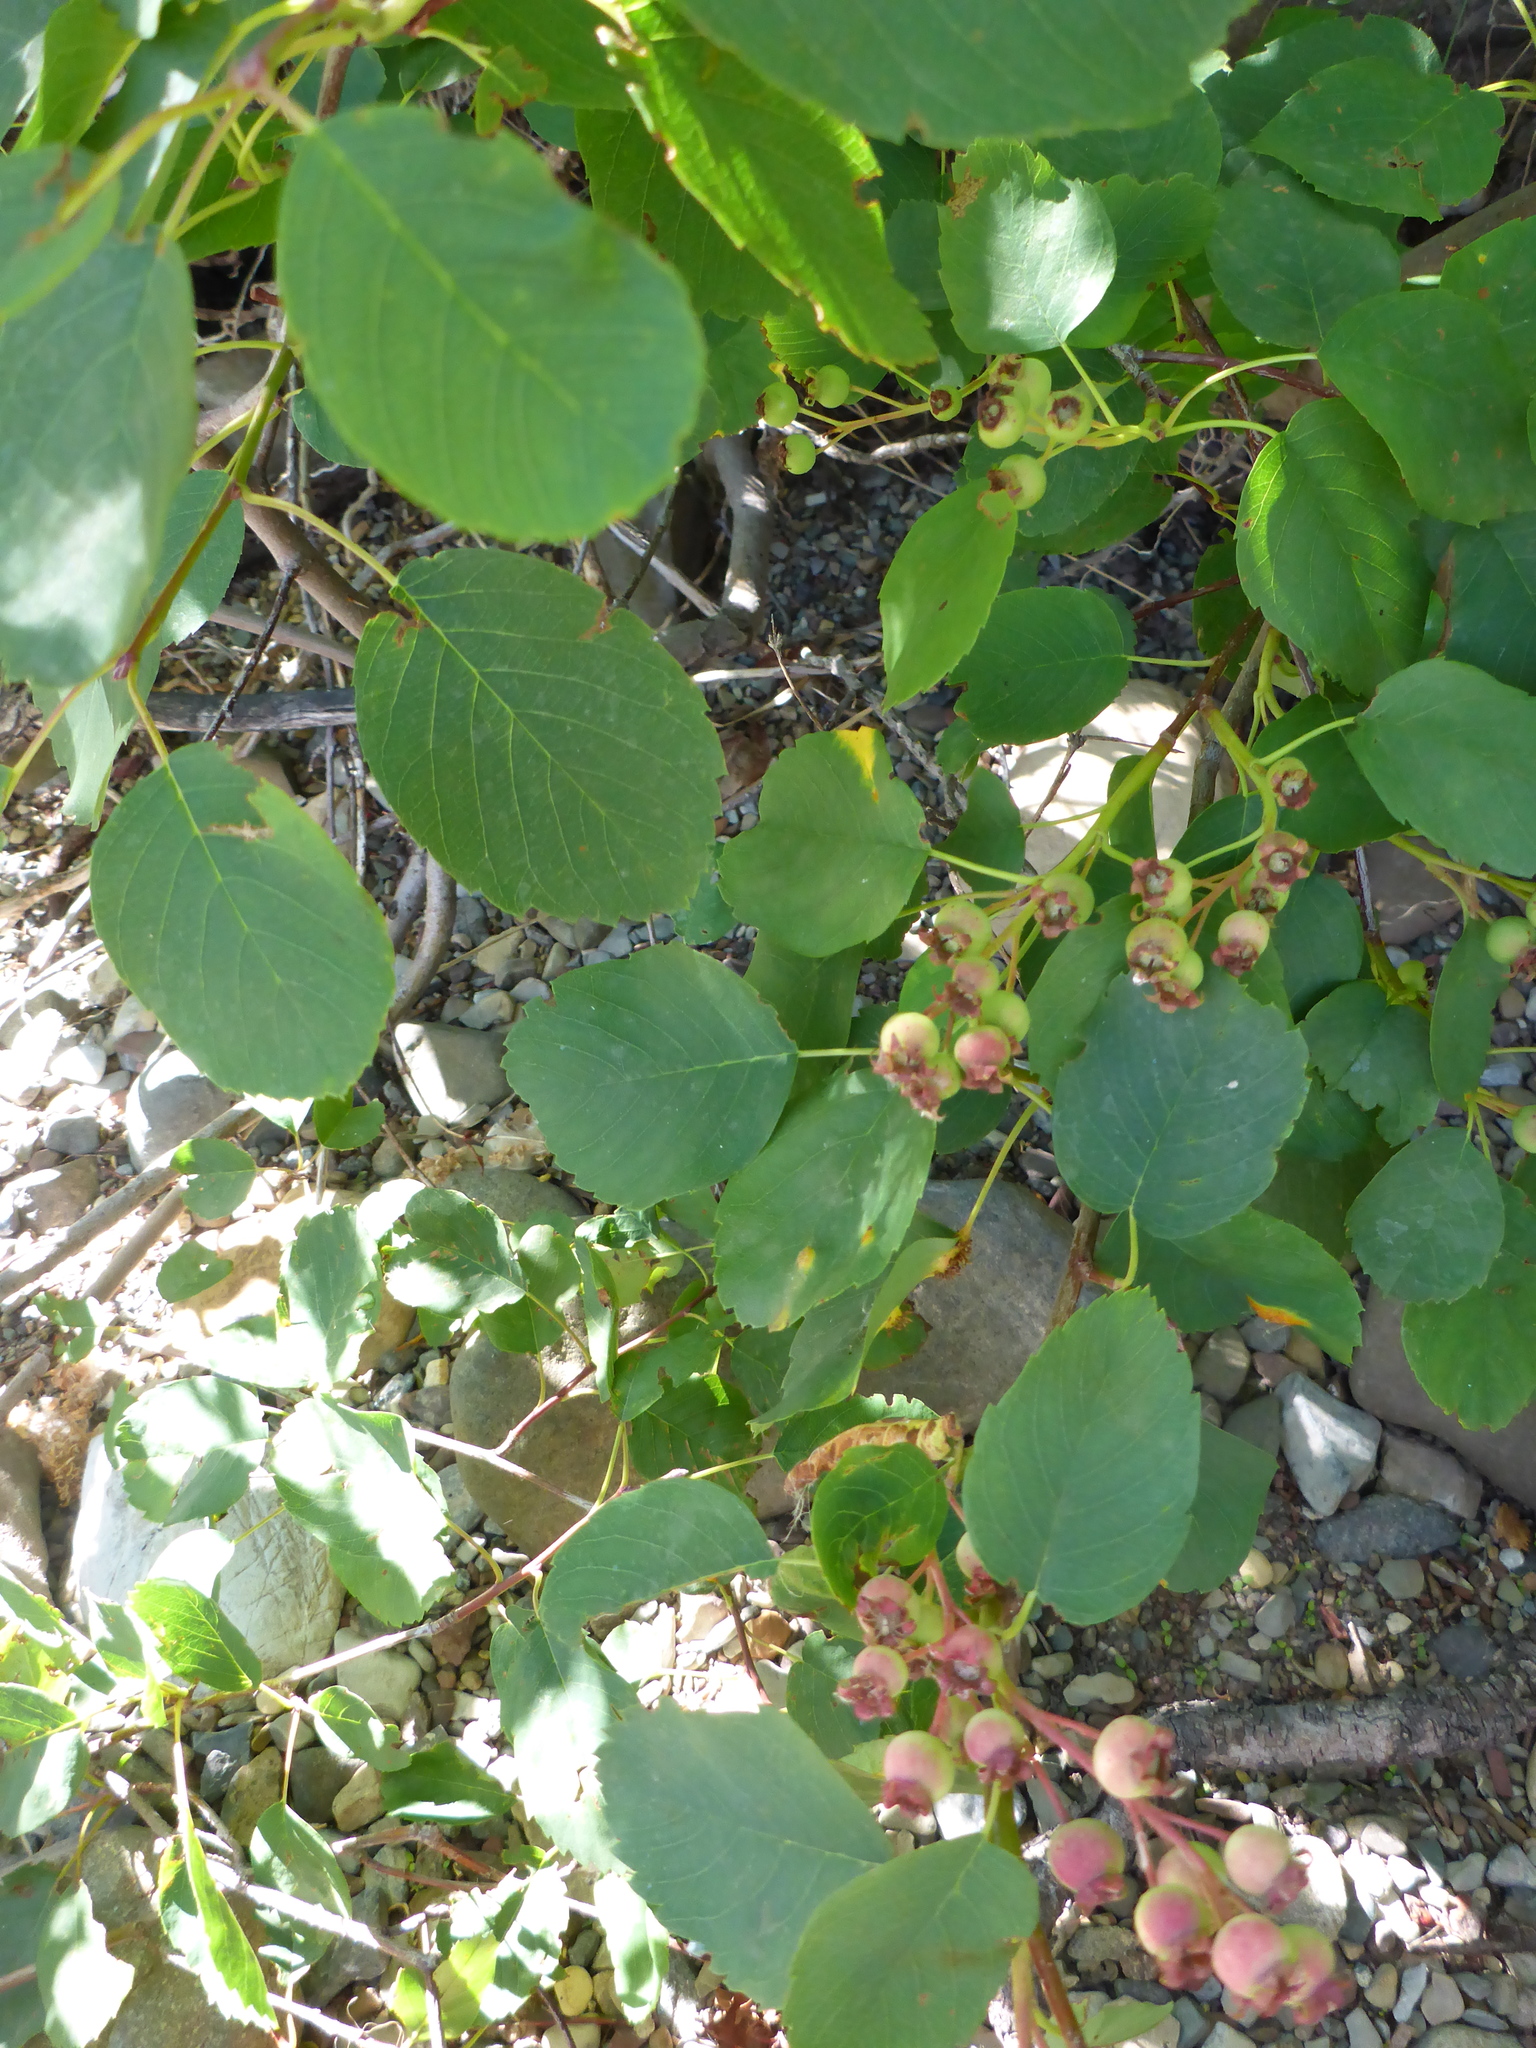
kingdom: Plantae
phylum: Tracheophyta
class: Magnoliopsida
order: Rosales
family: Rosaceae
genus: Amelanchier
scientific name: Amelanchier alnifolia
